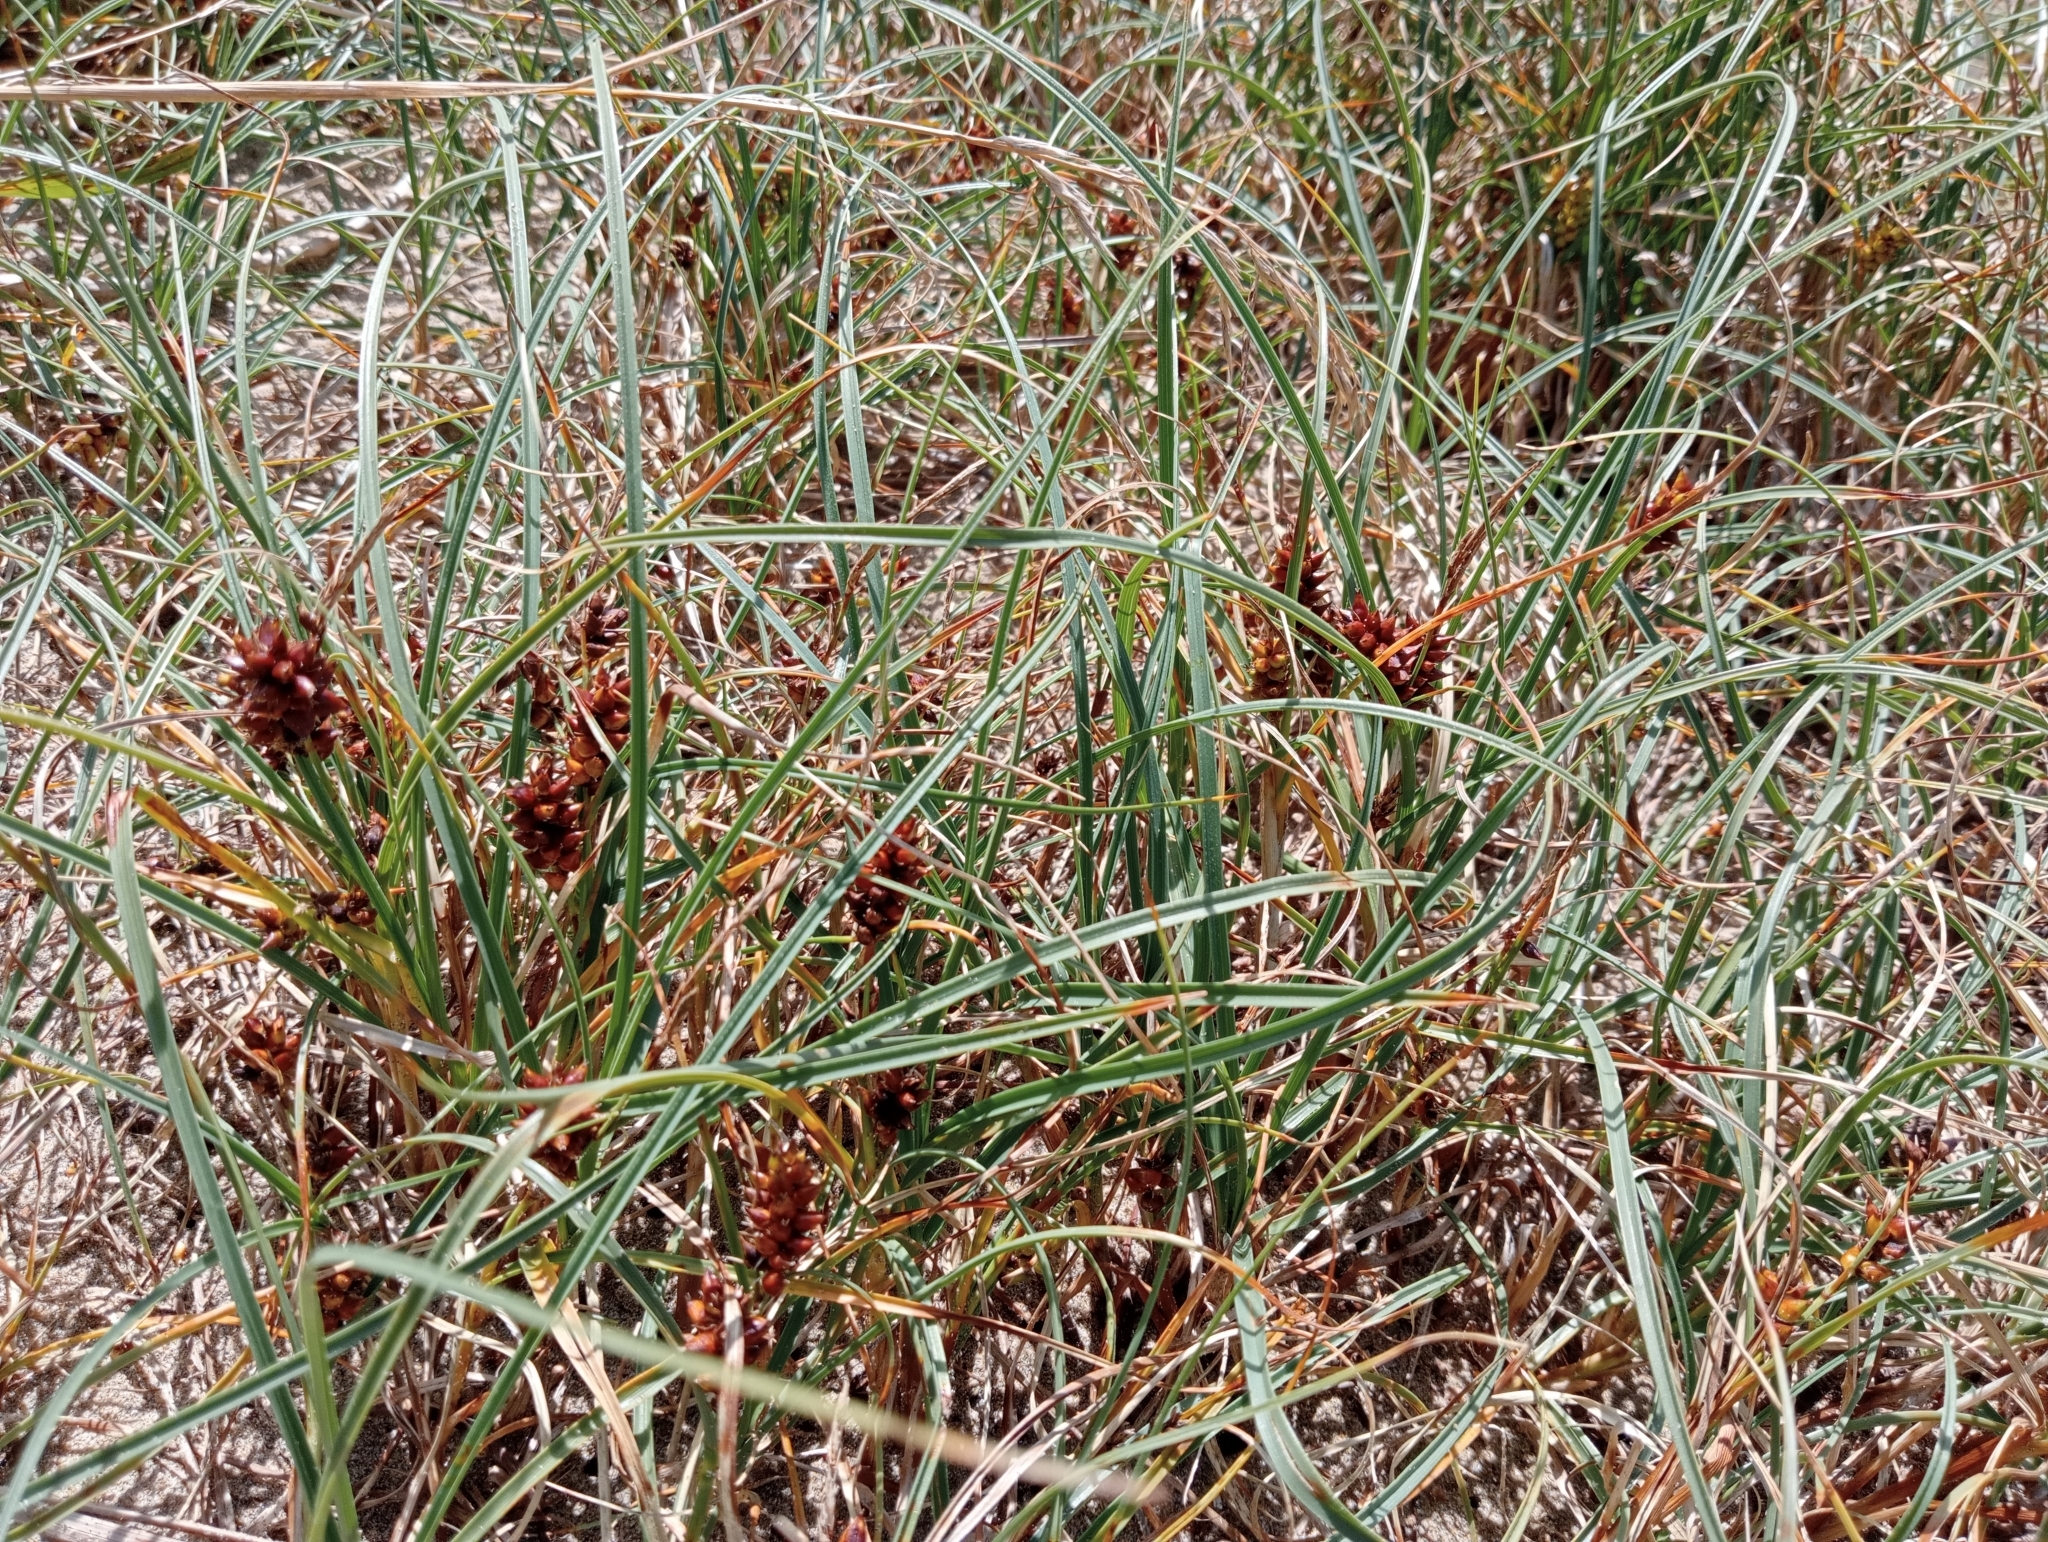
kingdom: Plantae
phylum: Tracheophyta
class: Liliopsida
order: Poales
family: Cyperaceae
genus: Carex
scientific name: Carex pumila
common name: Dwarf sedge
